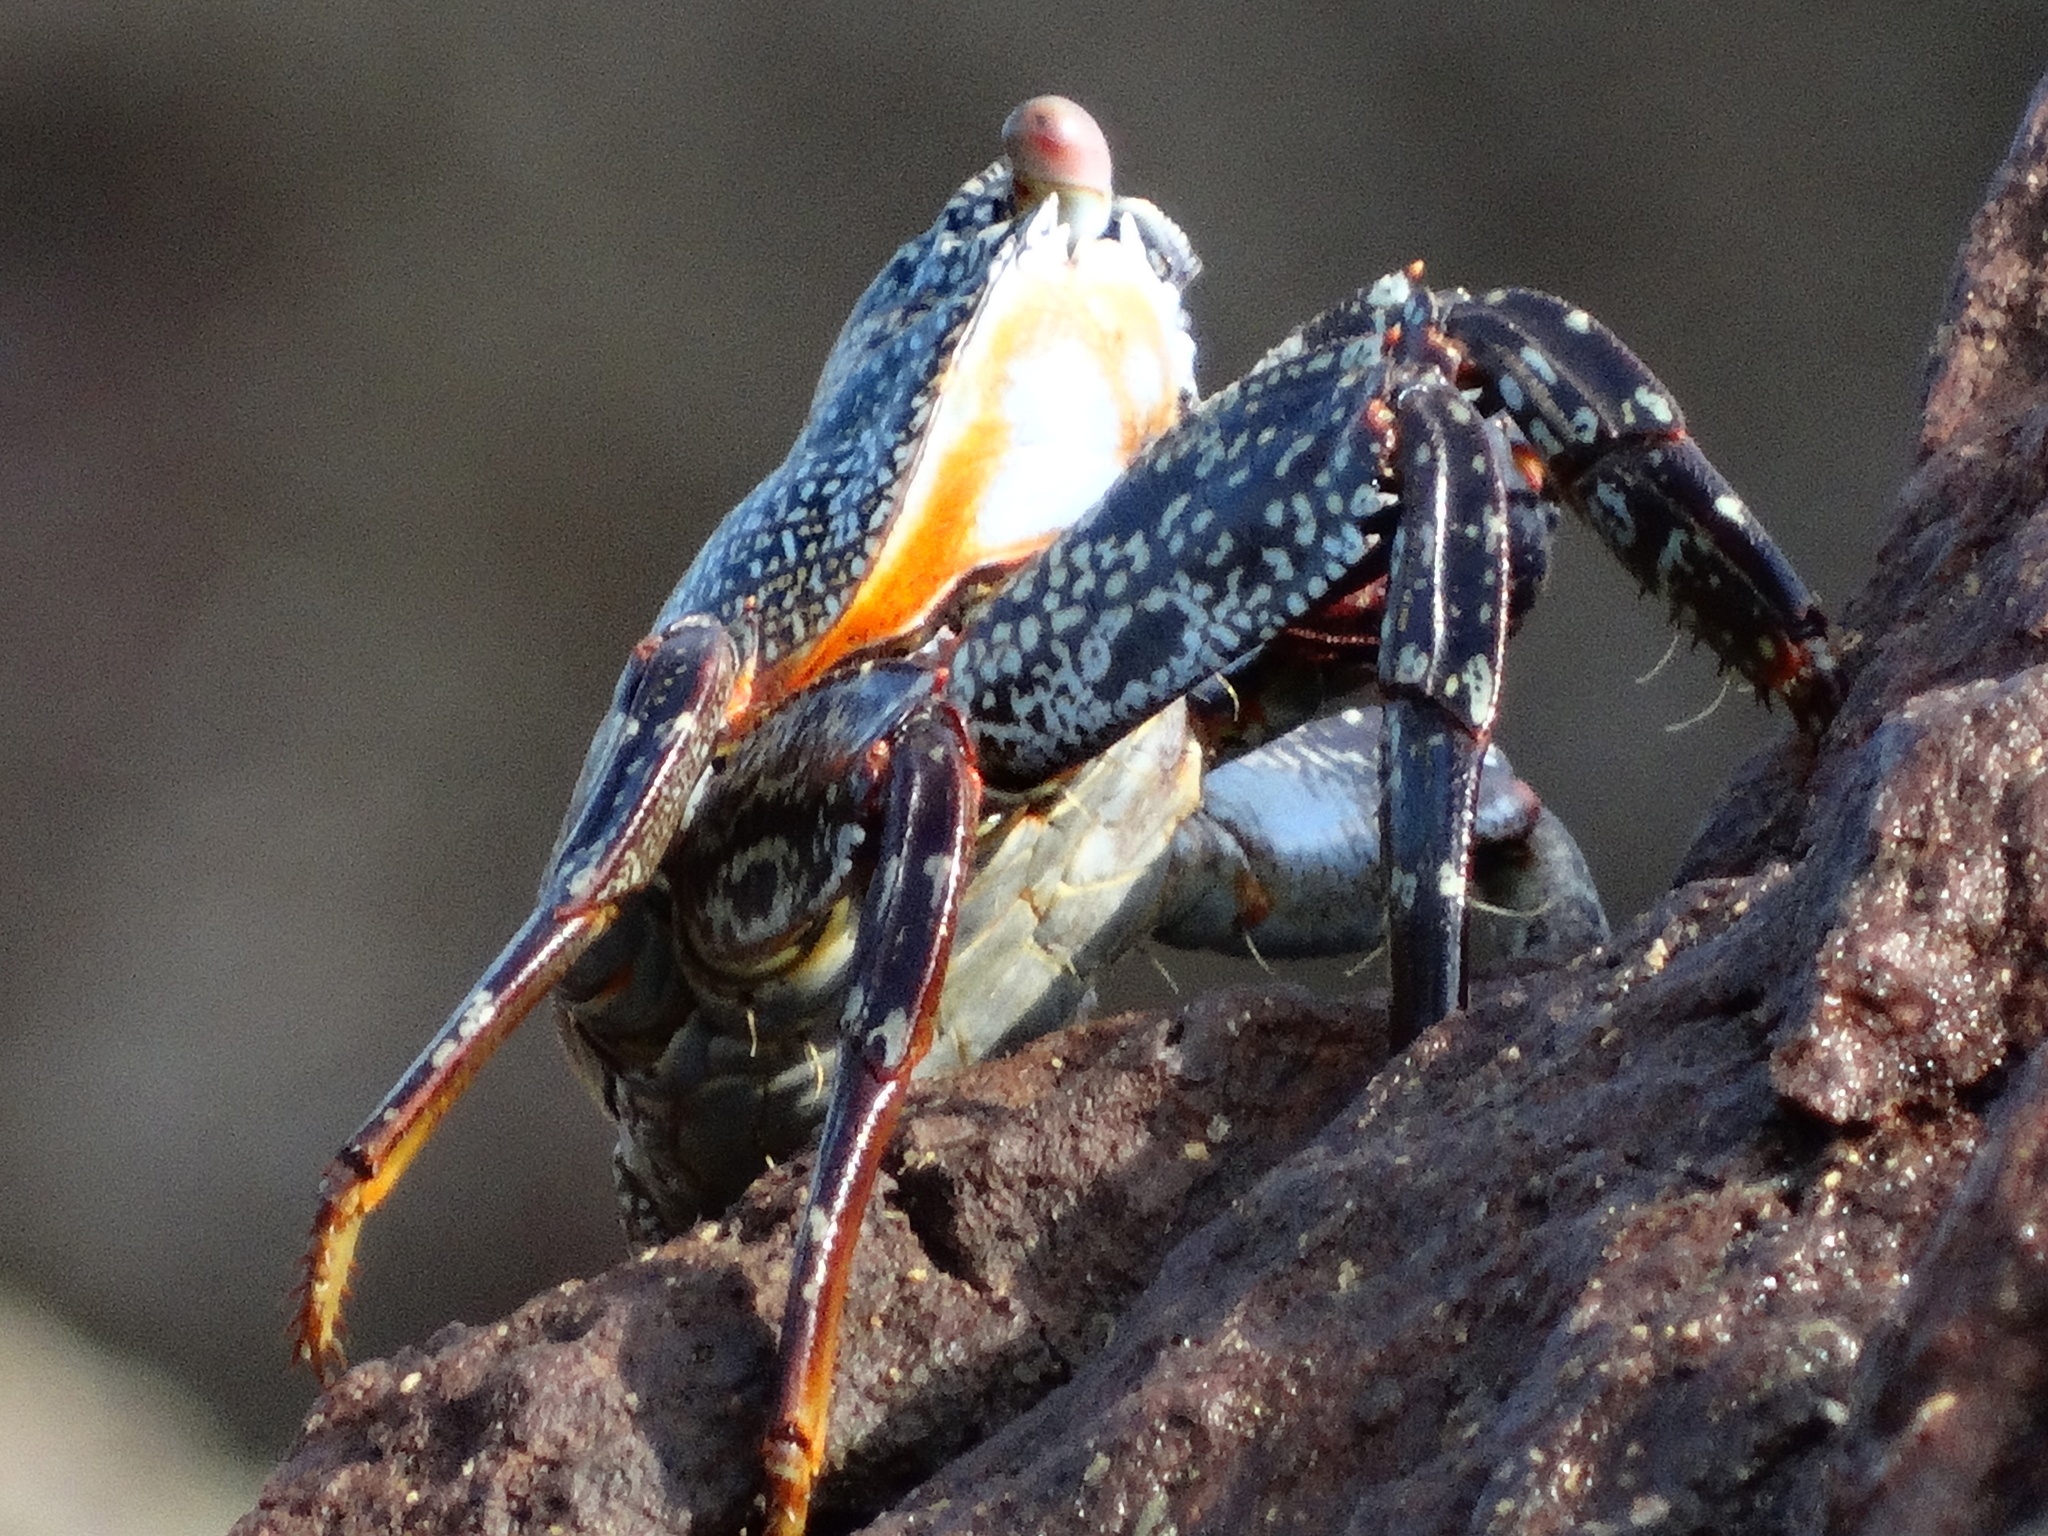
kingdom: Animalia
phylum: Arthropoda
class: Malacostraca
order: Decapoda
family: Grapsidae
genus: Grapsus
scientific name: Grapsus grapsus
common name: Sally lightfoot
